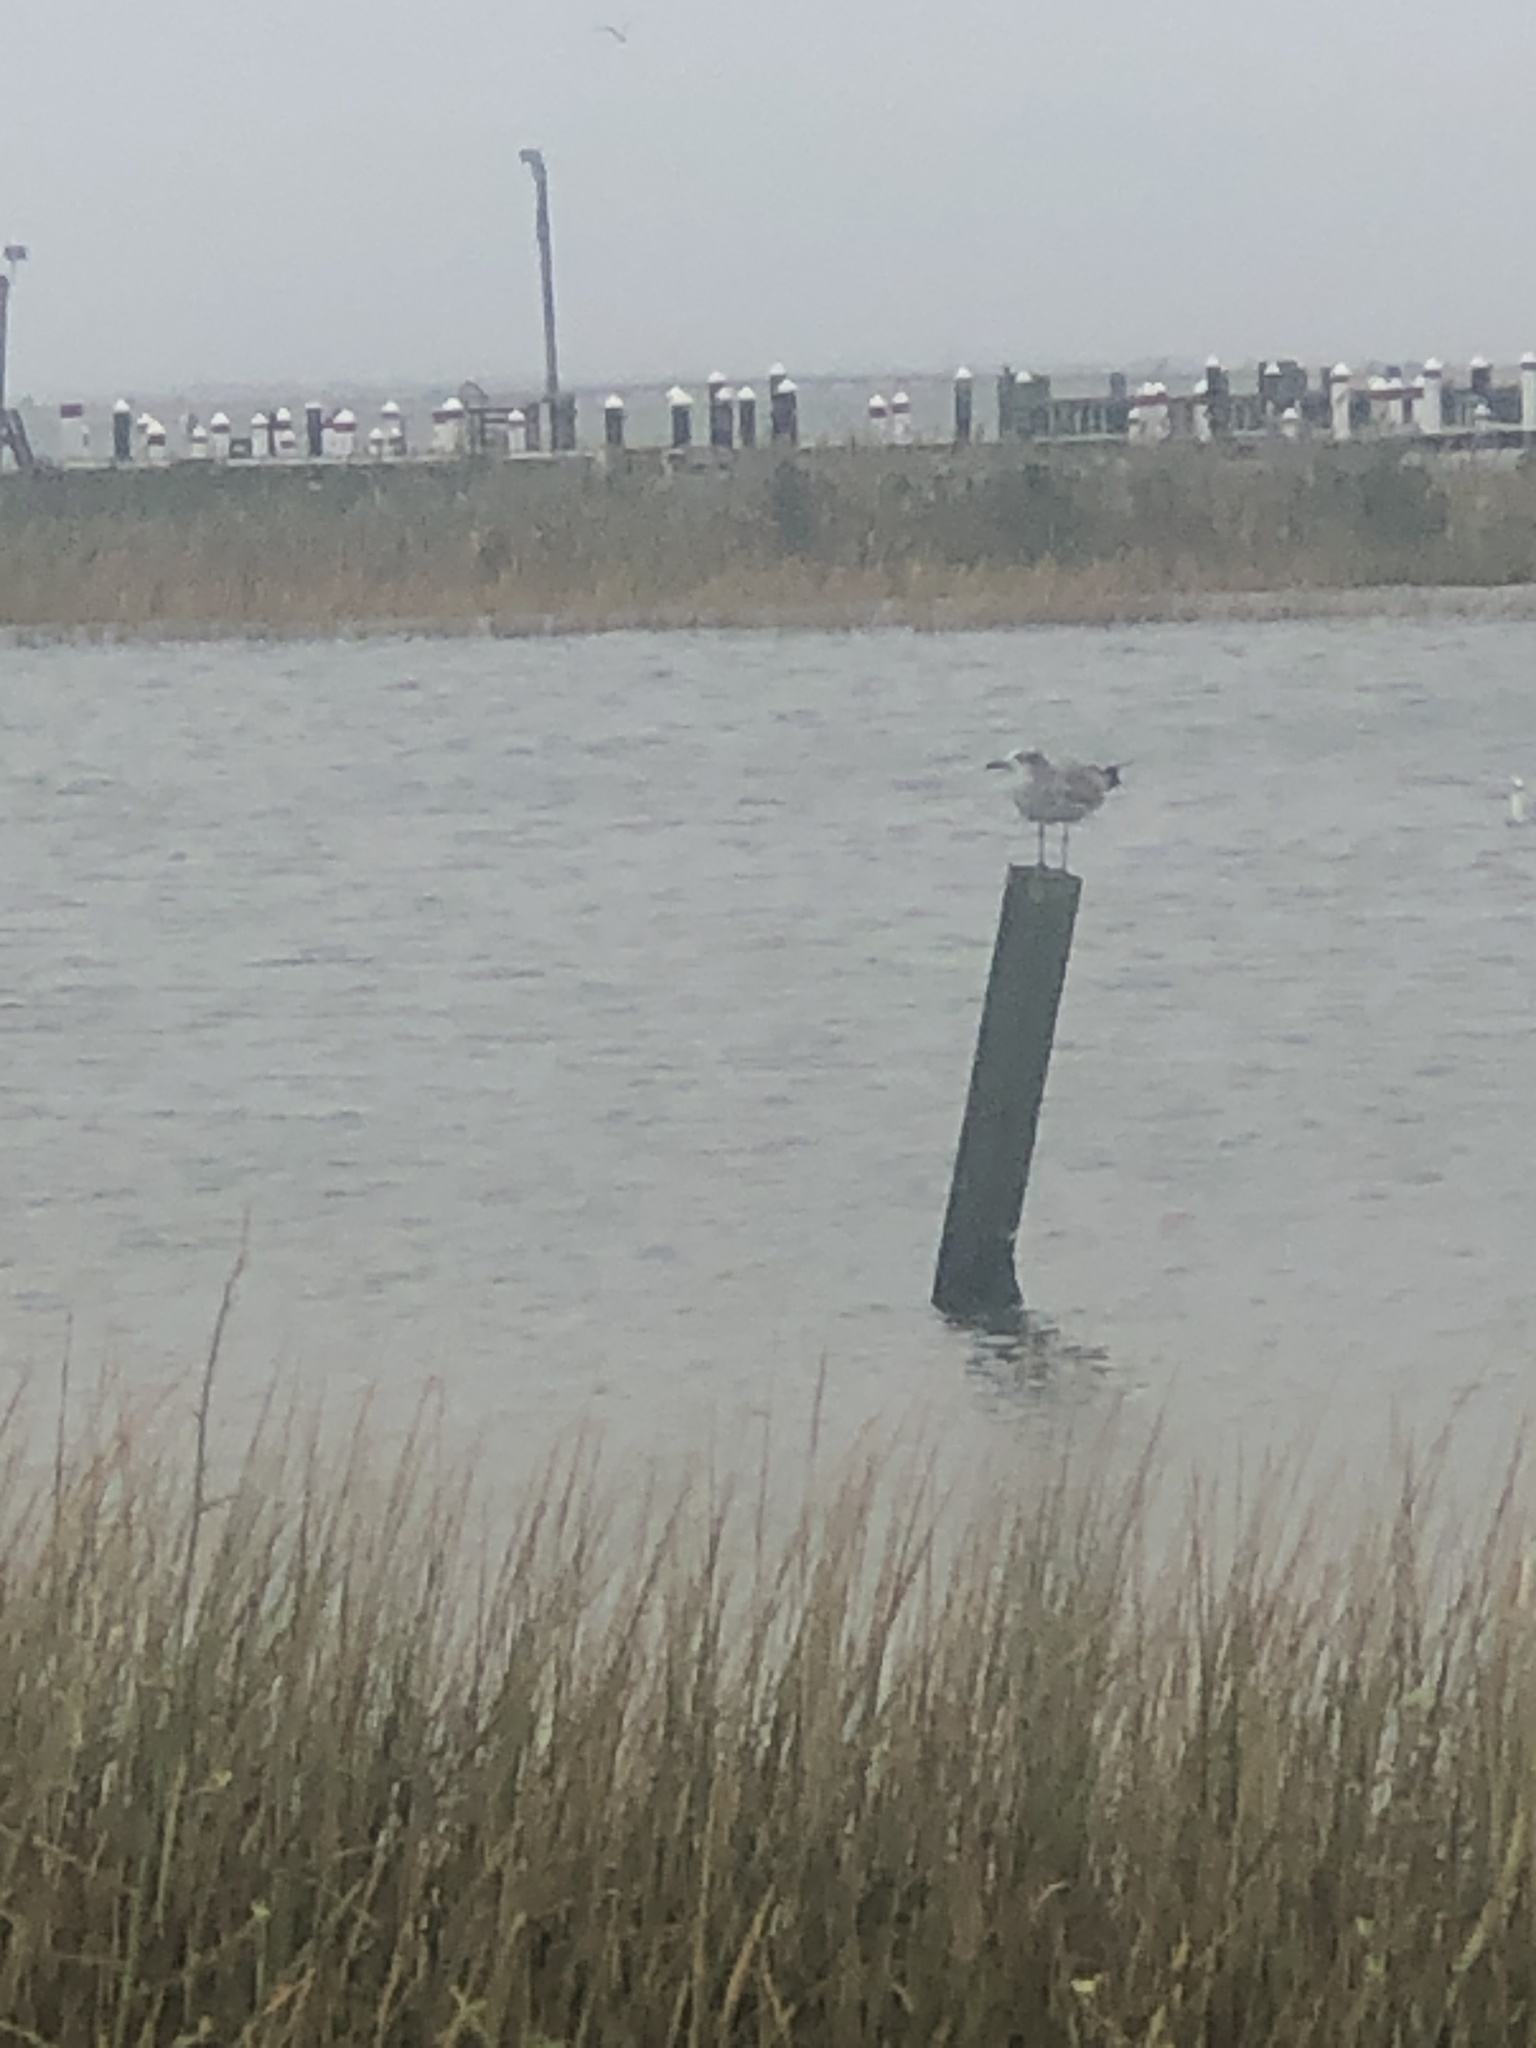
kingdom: Animalia
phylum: Chordata
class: Aves
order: Charadriiformes
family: Laridae
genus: Leucophaeus
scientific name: Leucophaeus atricilla
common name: Laughing gull
